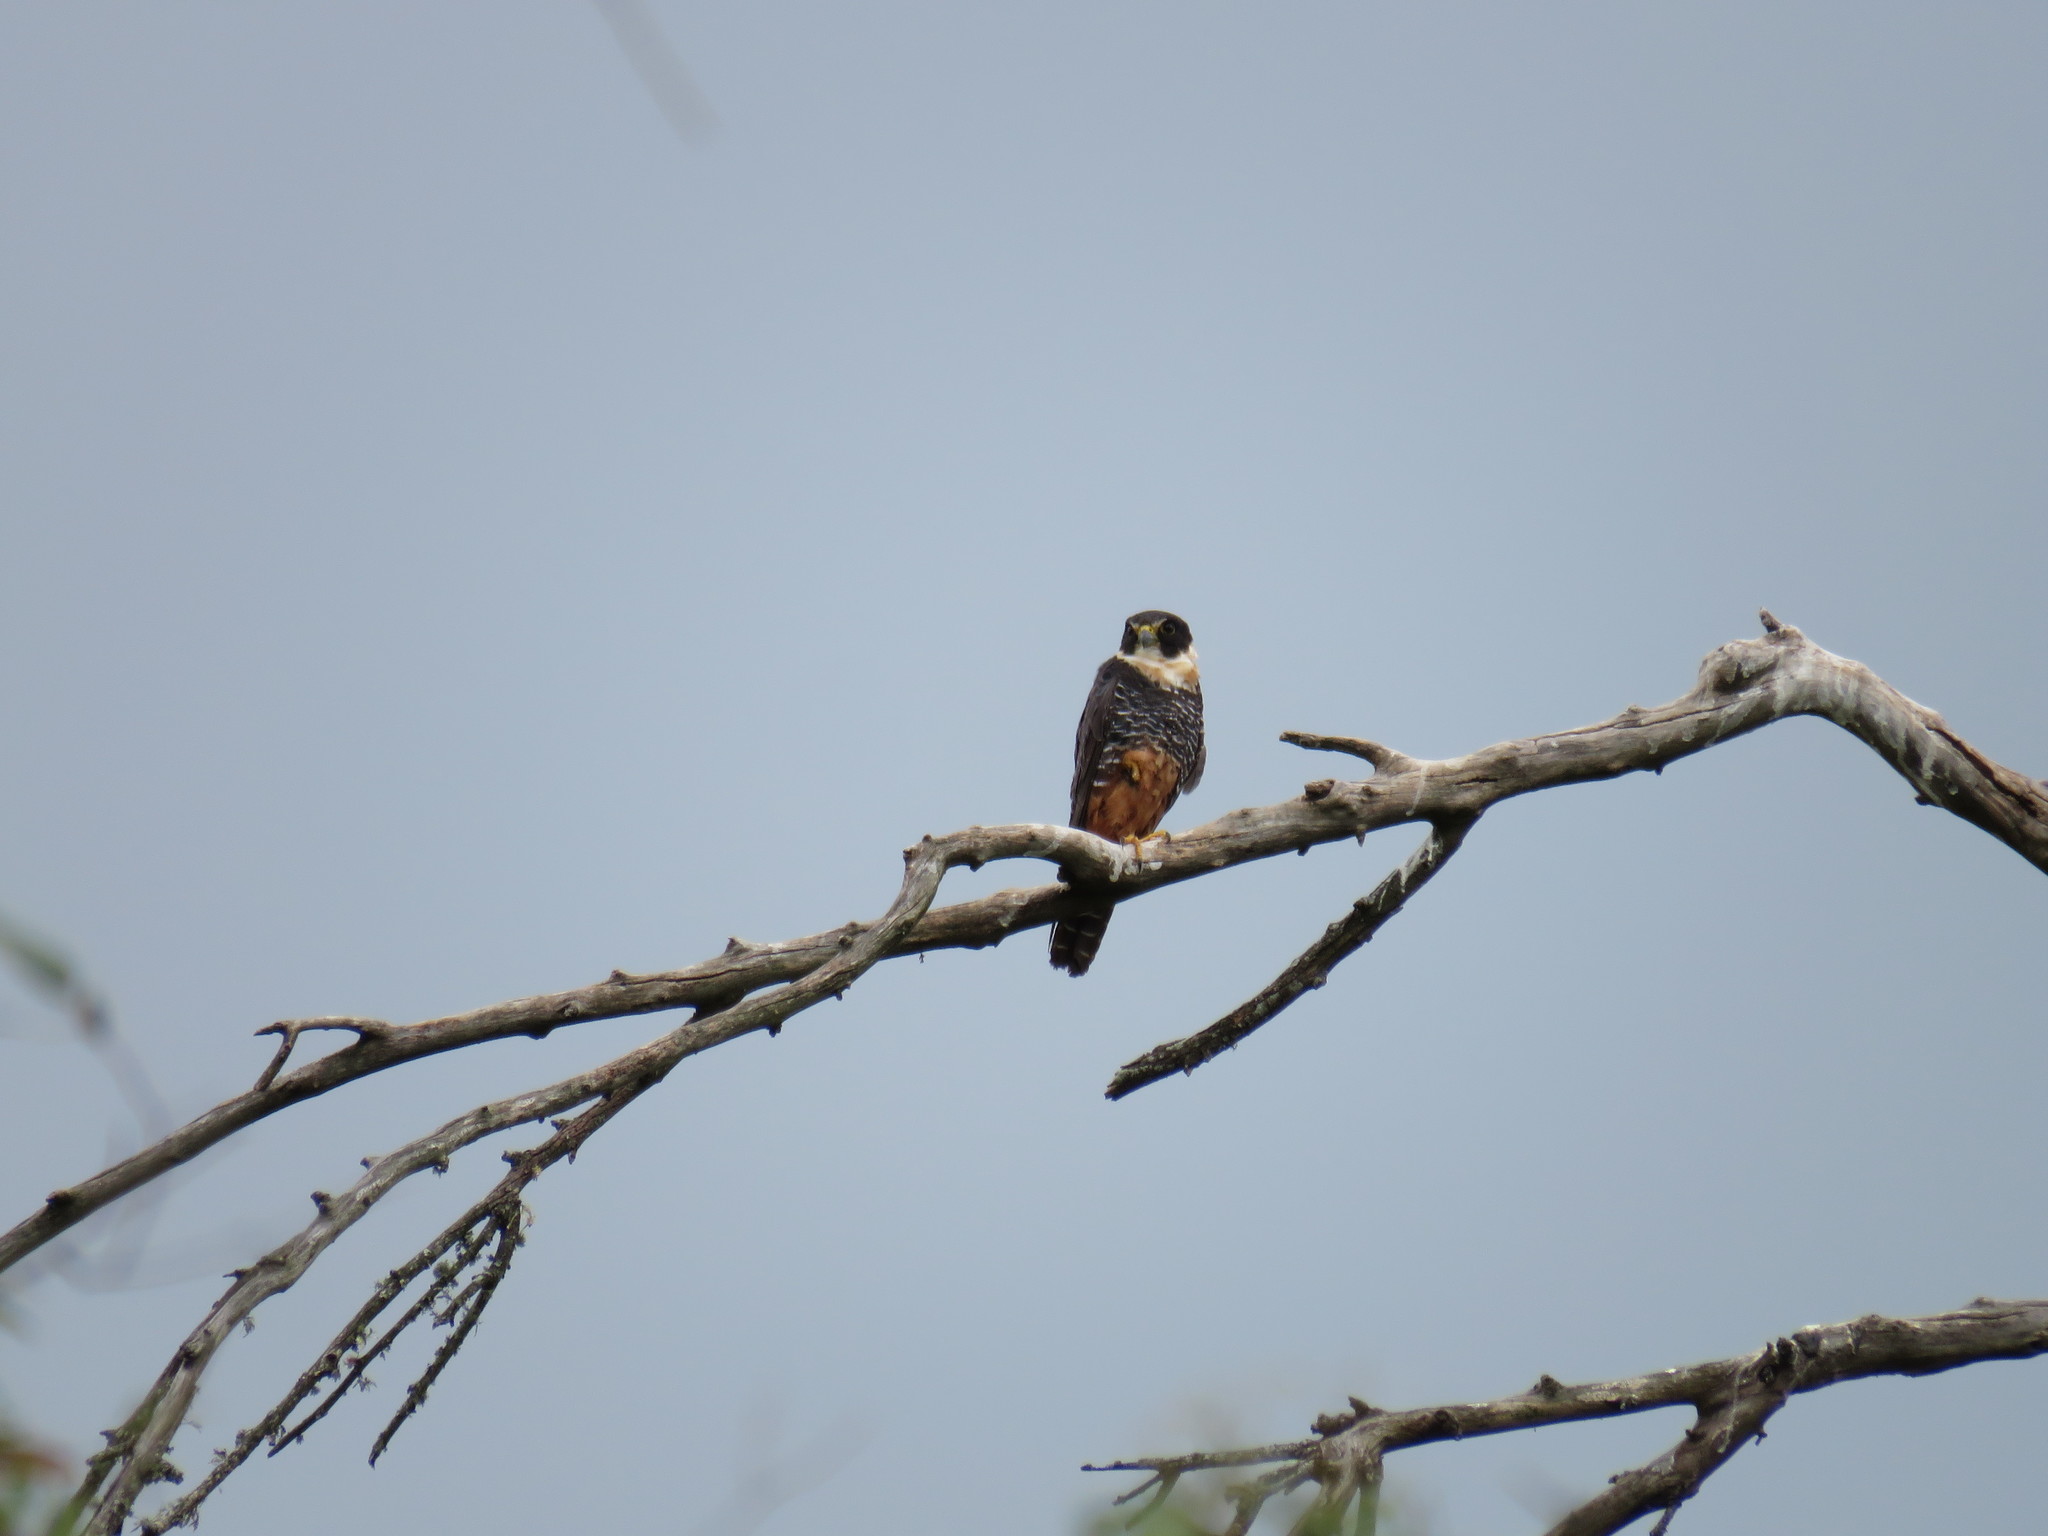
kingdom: Animalia
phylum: Chordata
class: Aves
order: Falconiformes
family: Falconidae
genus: Falco
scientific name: Falco rufigularis
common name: Bat falcon
